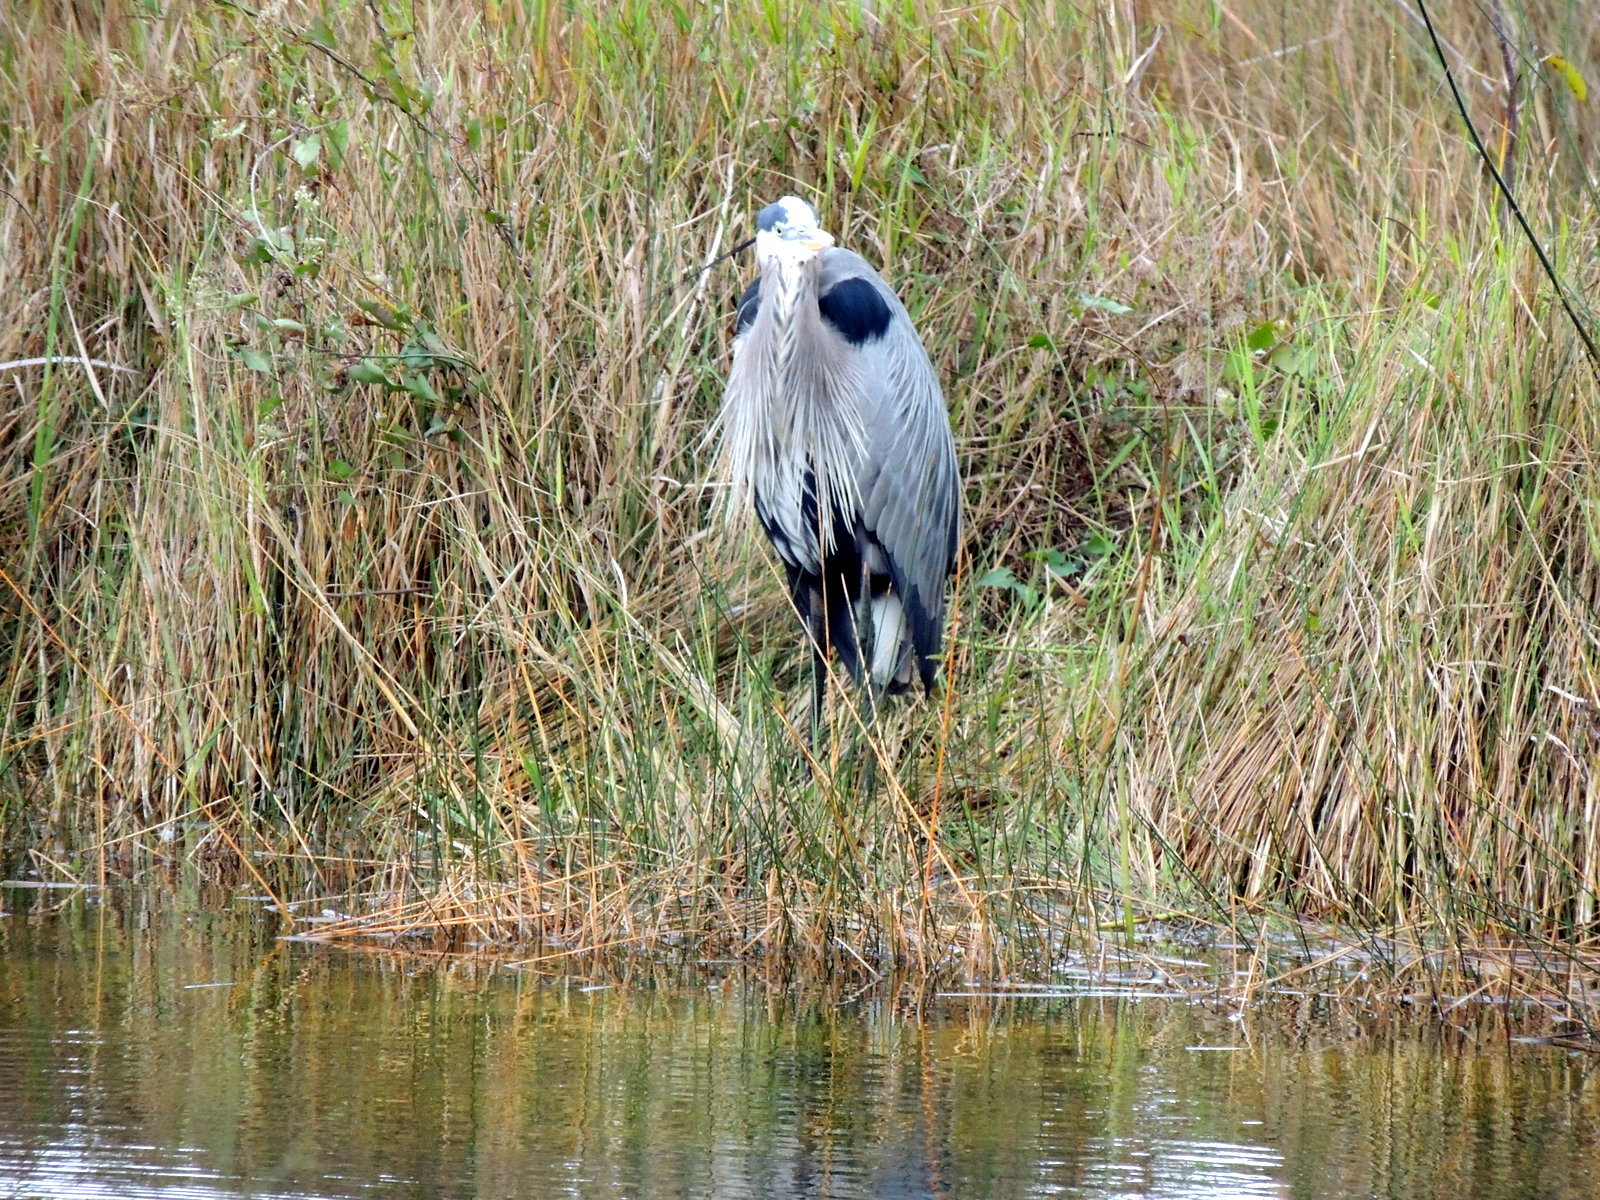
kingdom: Animalia
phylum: Chordata
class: Aves
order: Pelecaniformes
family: Ardeidae
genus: Ardea
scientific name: Ardea herodias
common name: Great blue heron
